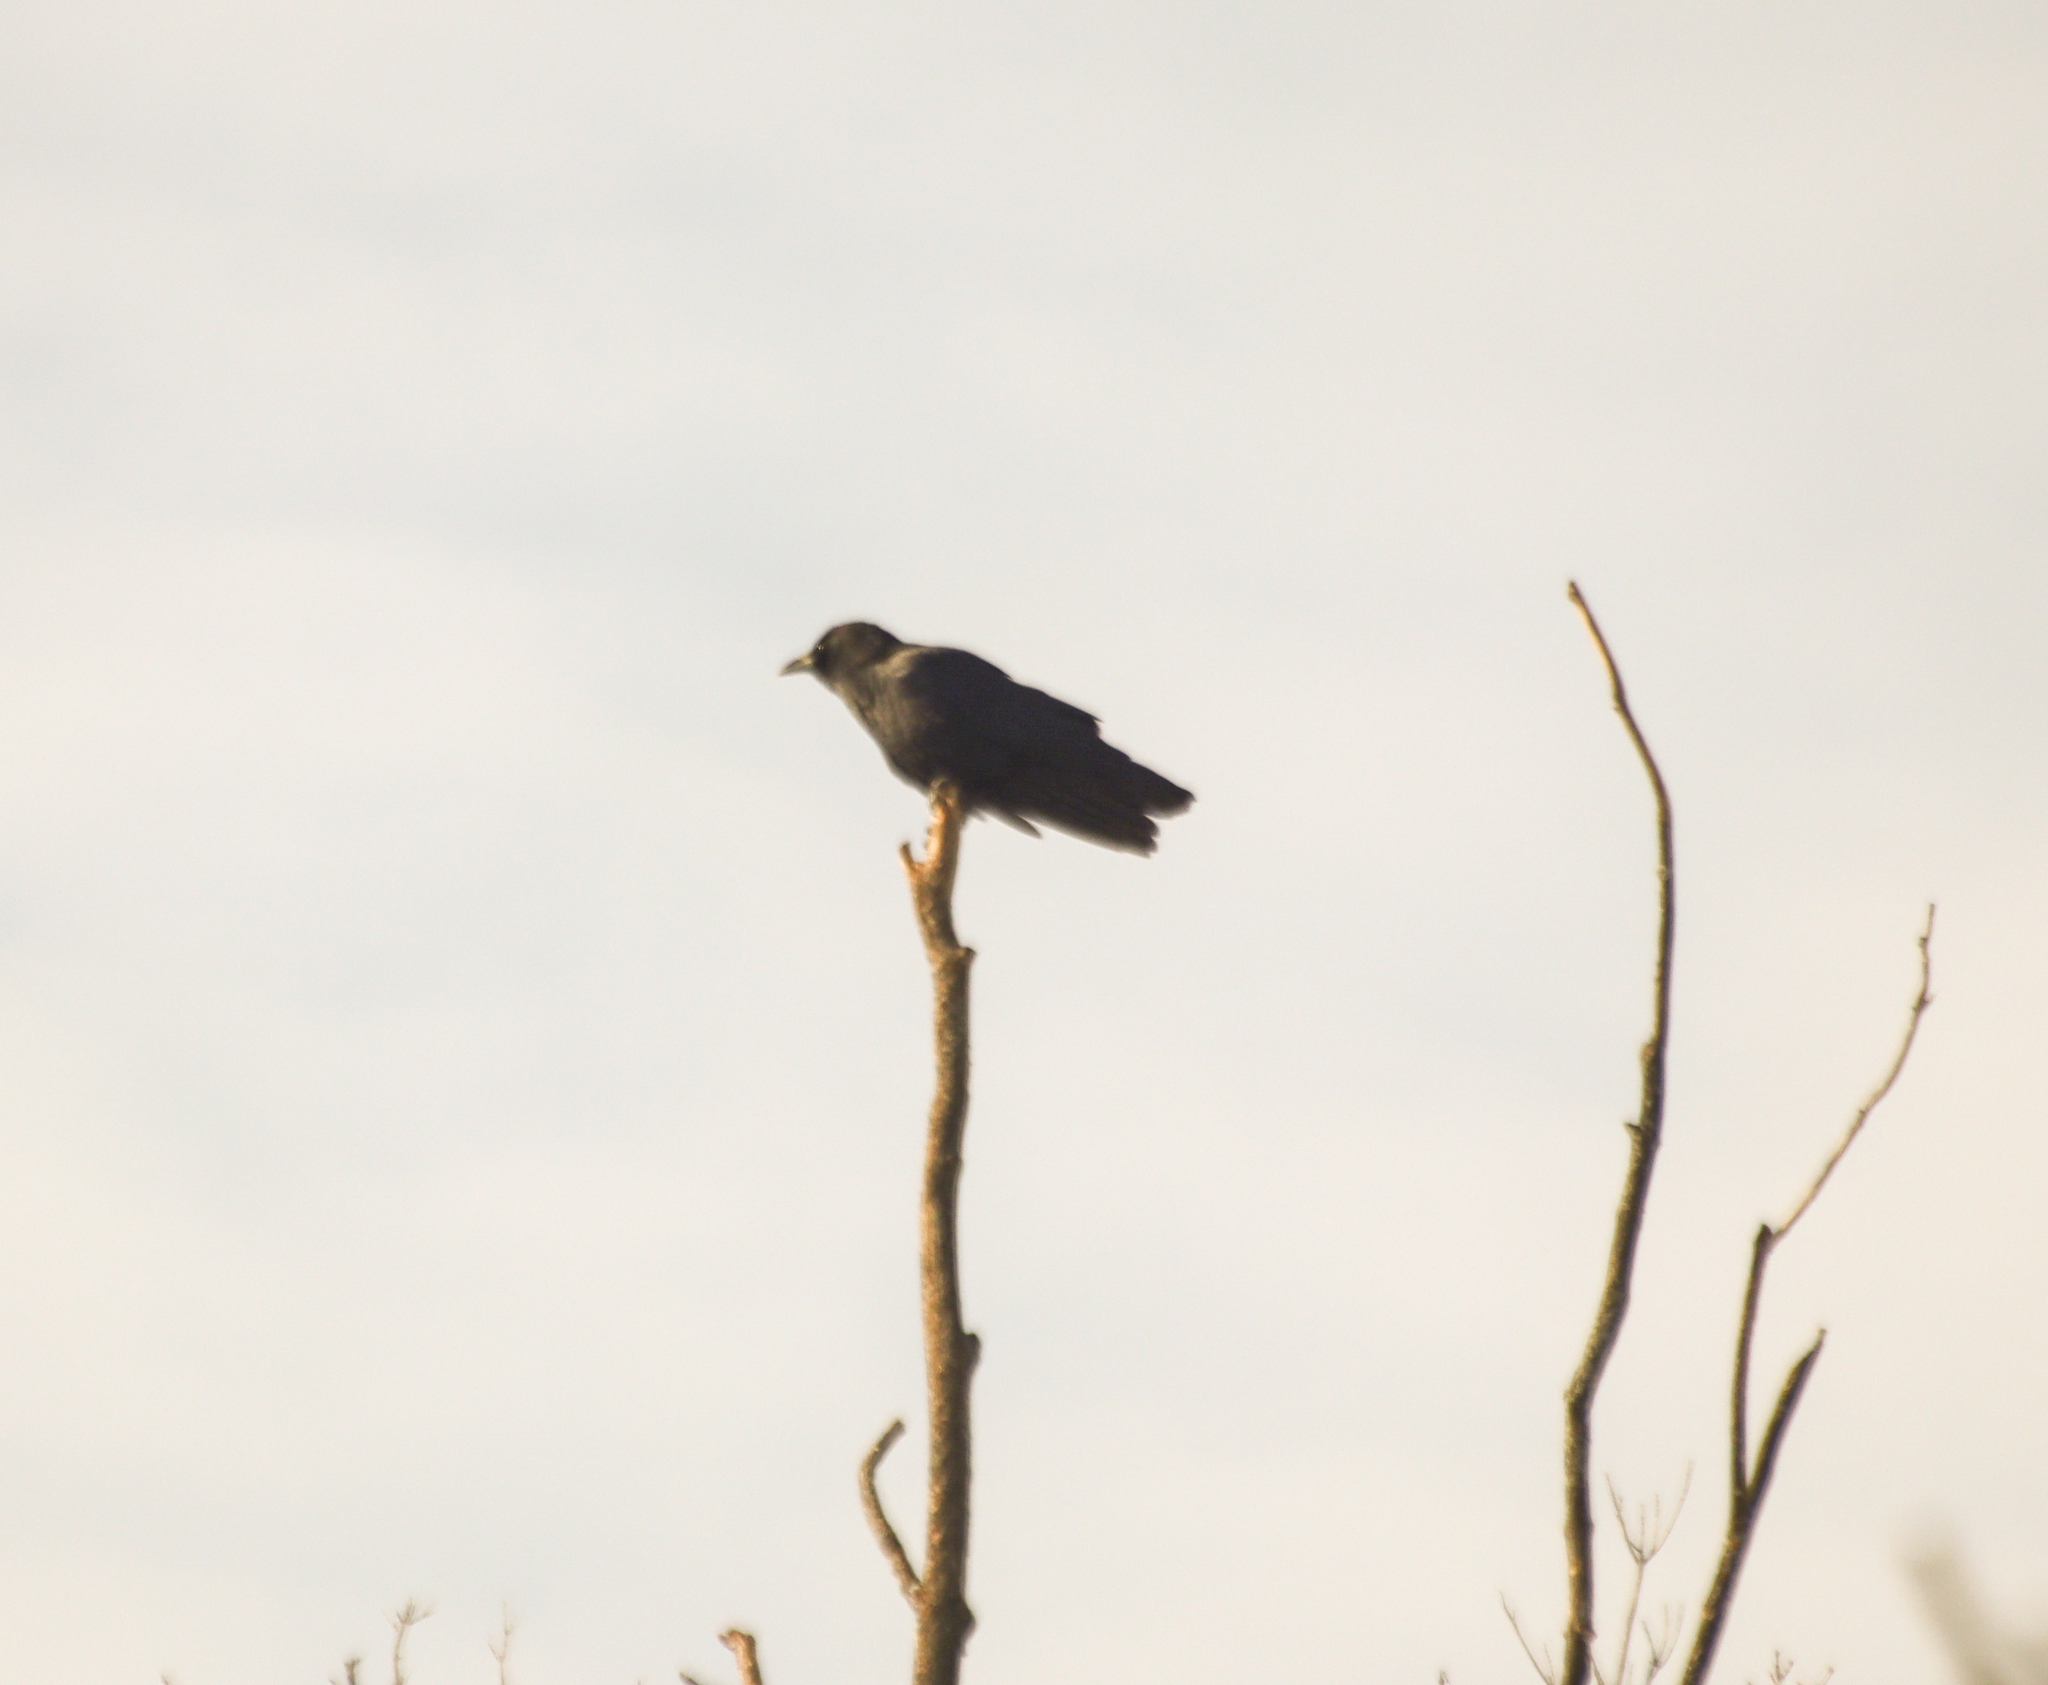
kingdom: Animalia
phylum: Chordata
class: Aves
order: Passeriformes
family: Corvidae
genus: Corvus
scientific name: Corvus brachyrhynchos
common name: American crow
